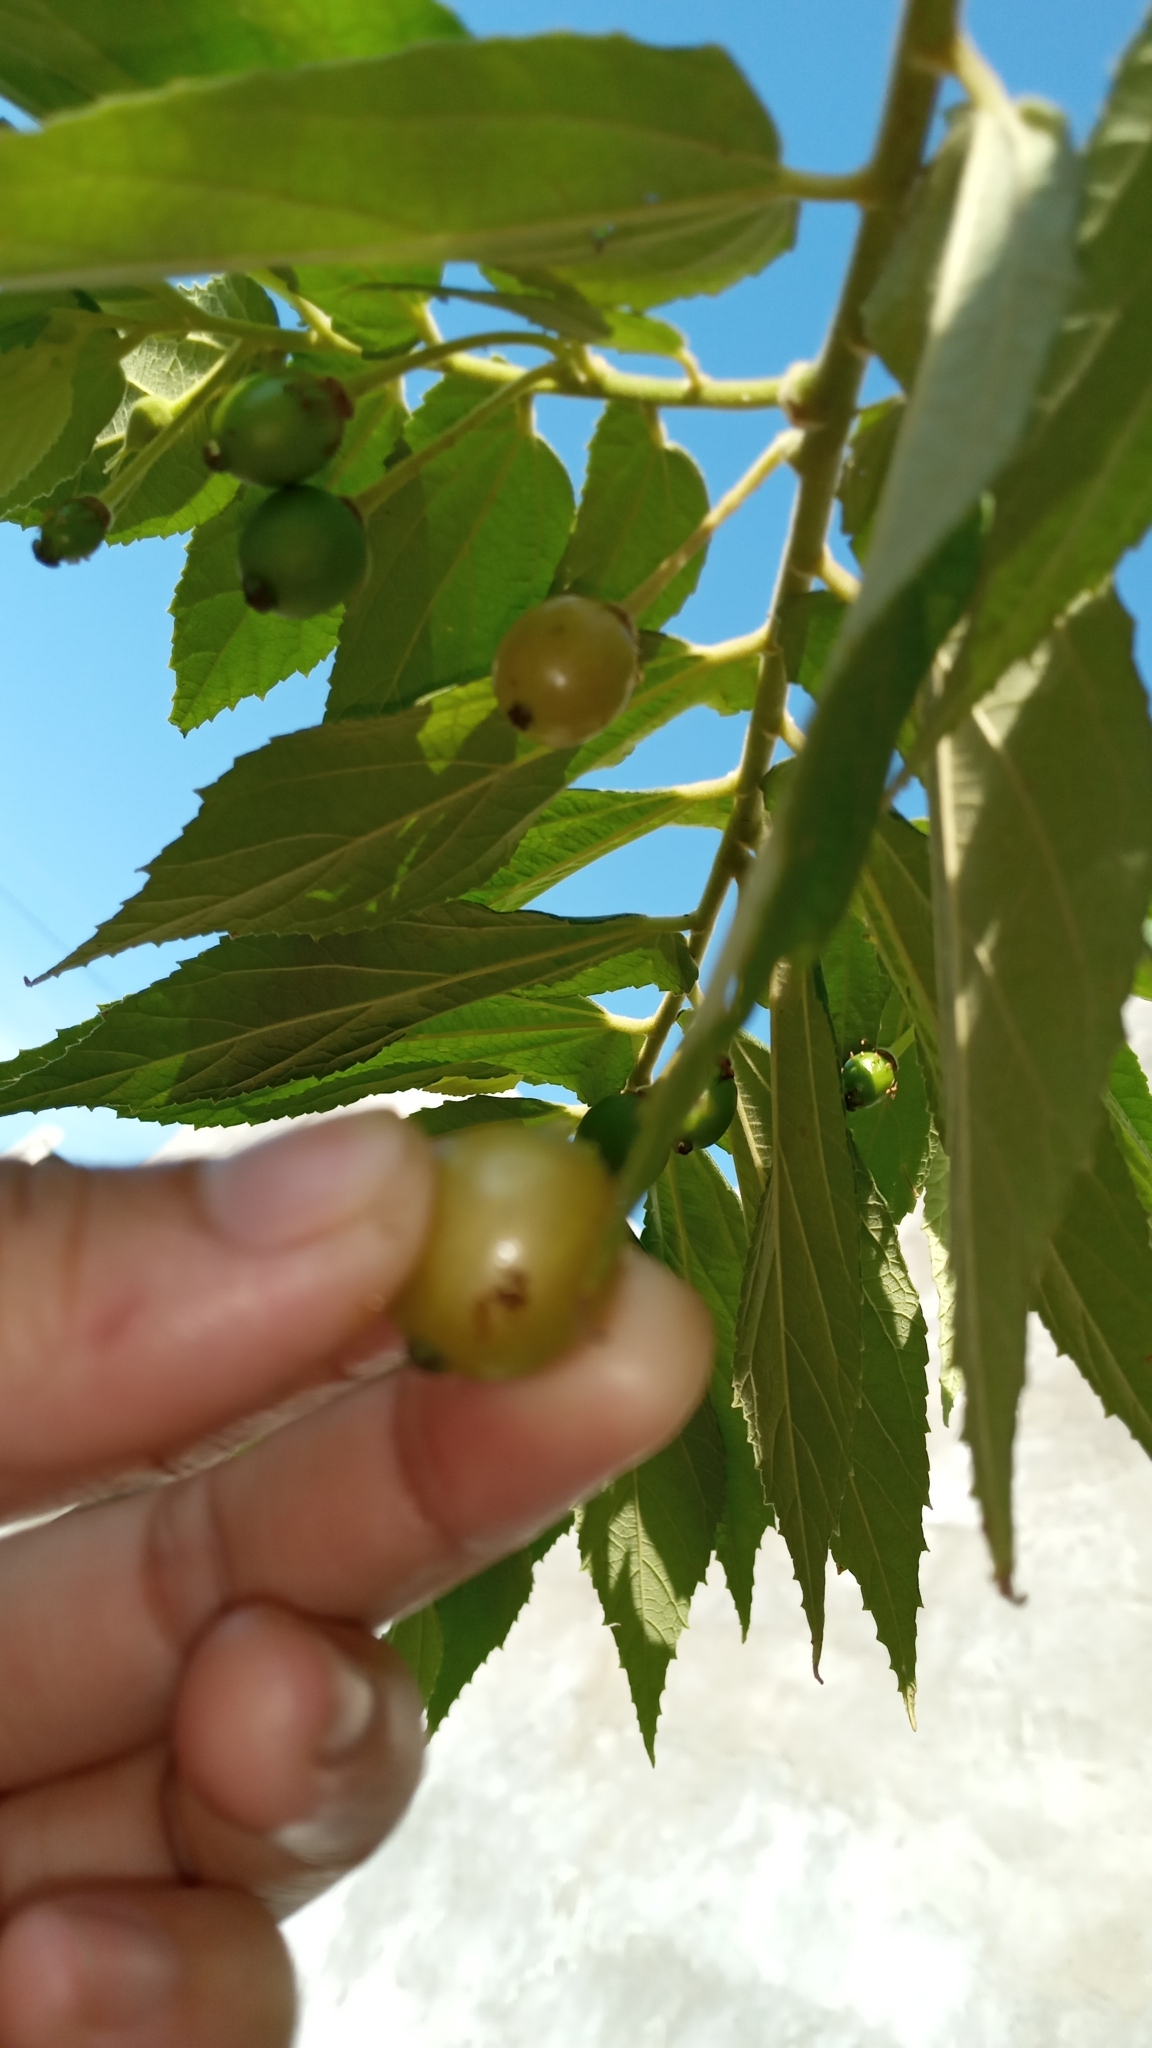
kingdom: Plantae
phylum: Tracheophyta
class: Magnoliopsida
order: Malvales
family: Muntingiaceae
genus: Muntingia
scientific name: Muntingia calabura
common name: Strawberrytree
